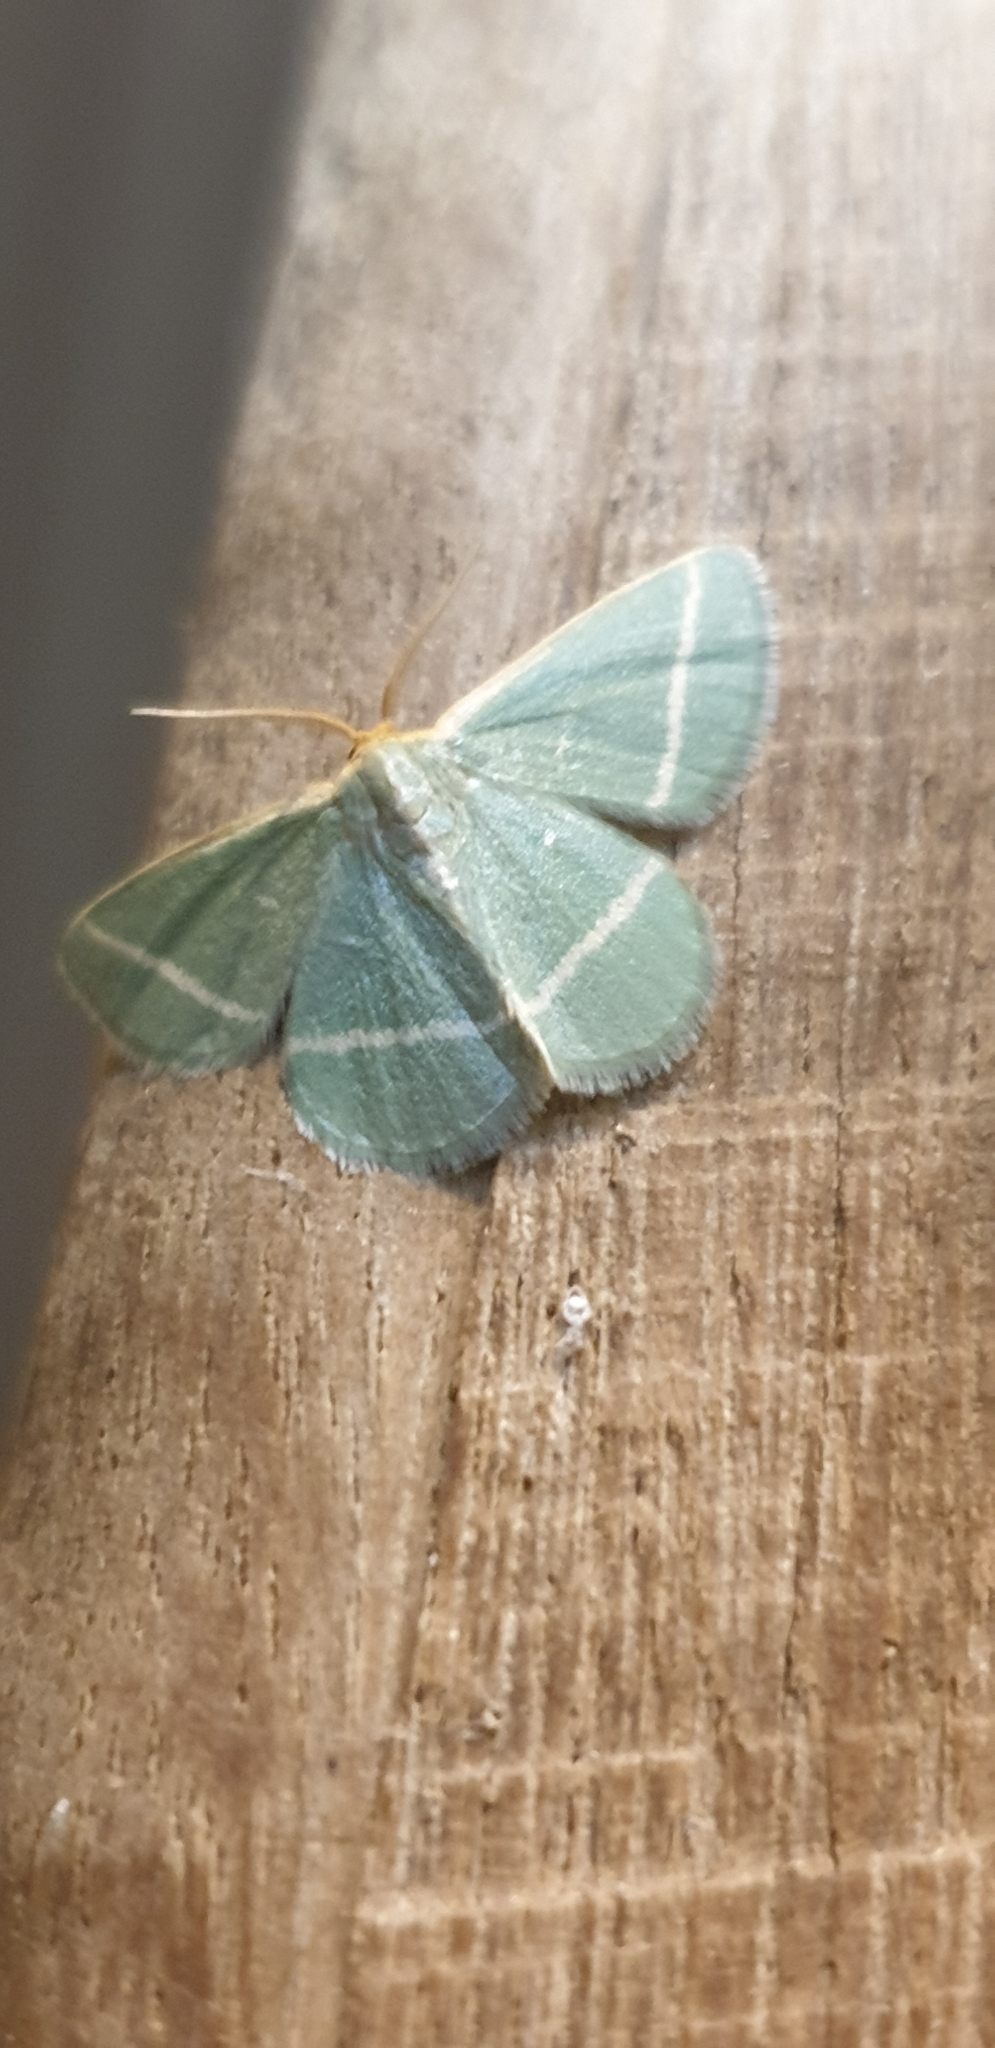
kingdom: Animalia
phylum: Arthropoda
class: Insecta
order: Lepidoptera
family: Geometridae
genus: Mixocera
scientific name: Mixocera latilineata
